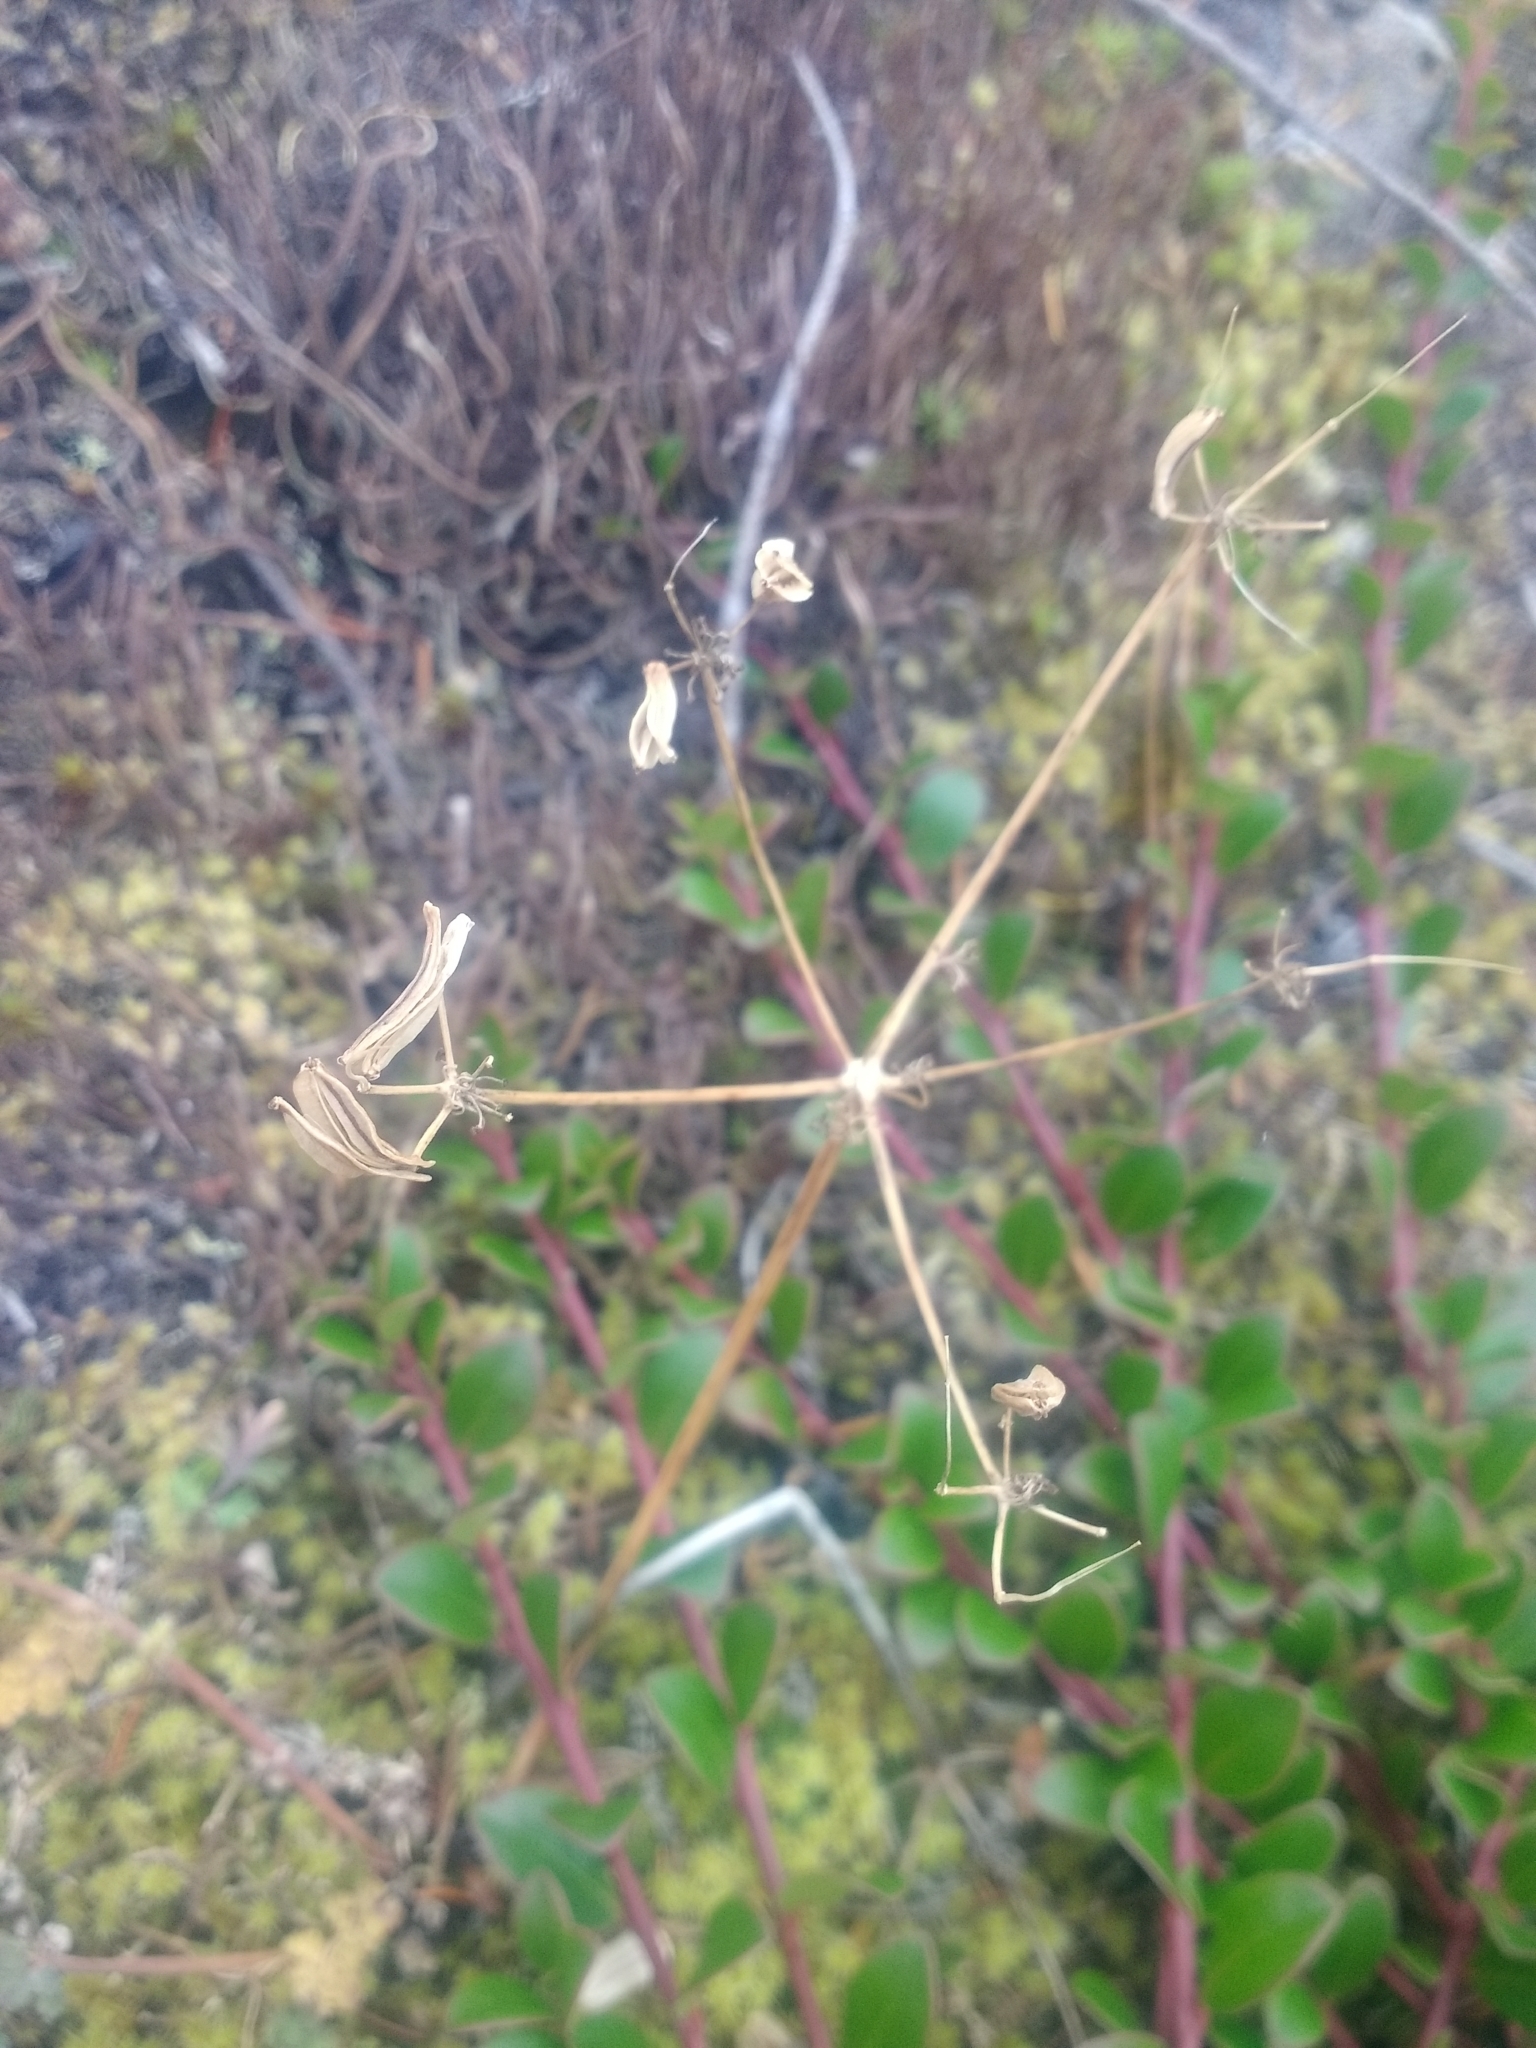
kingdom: Plantae
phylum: Tracheophyta
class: Magnoliopsida
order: Apiales
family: Apiaceae
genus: Lomatium
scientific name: Lomatium martindalei
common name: Cascade desert-parsley
